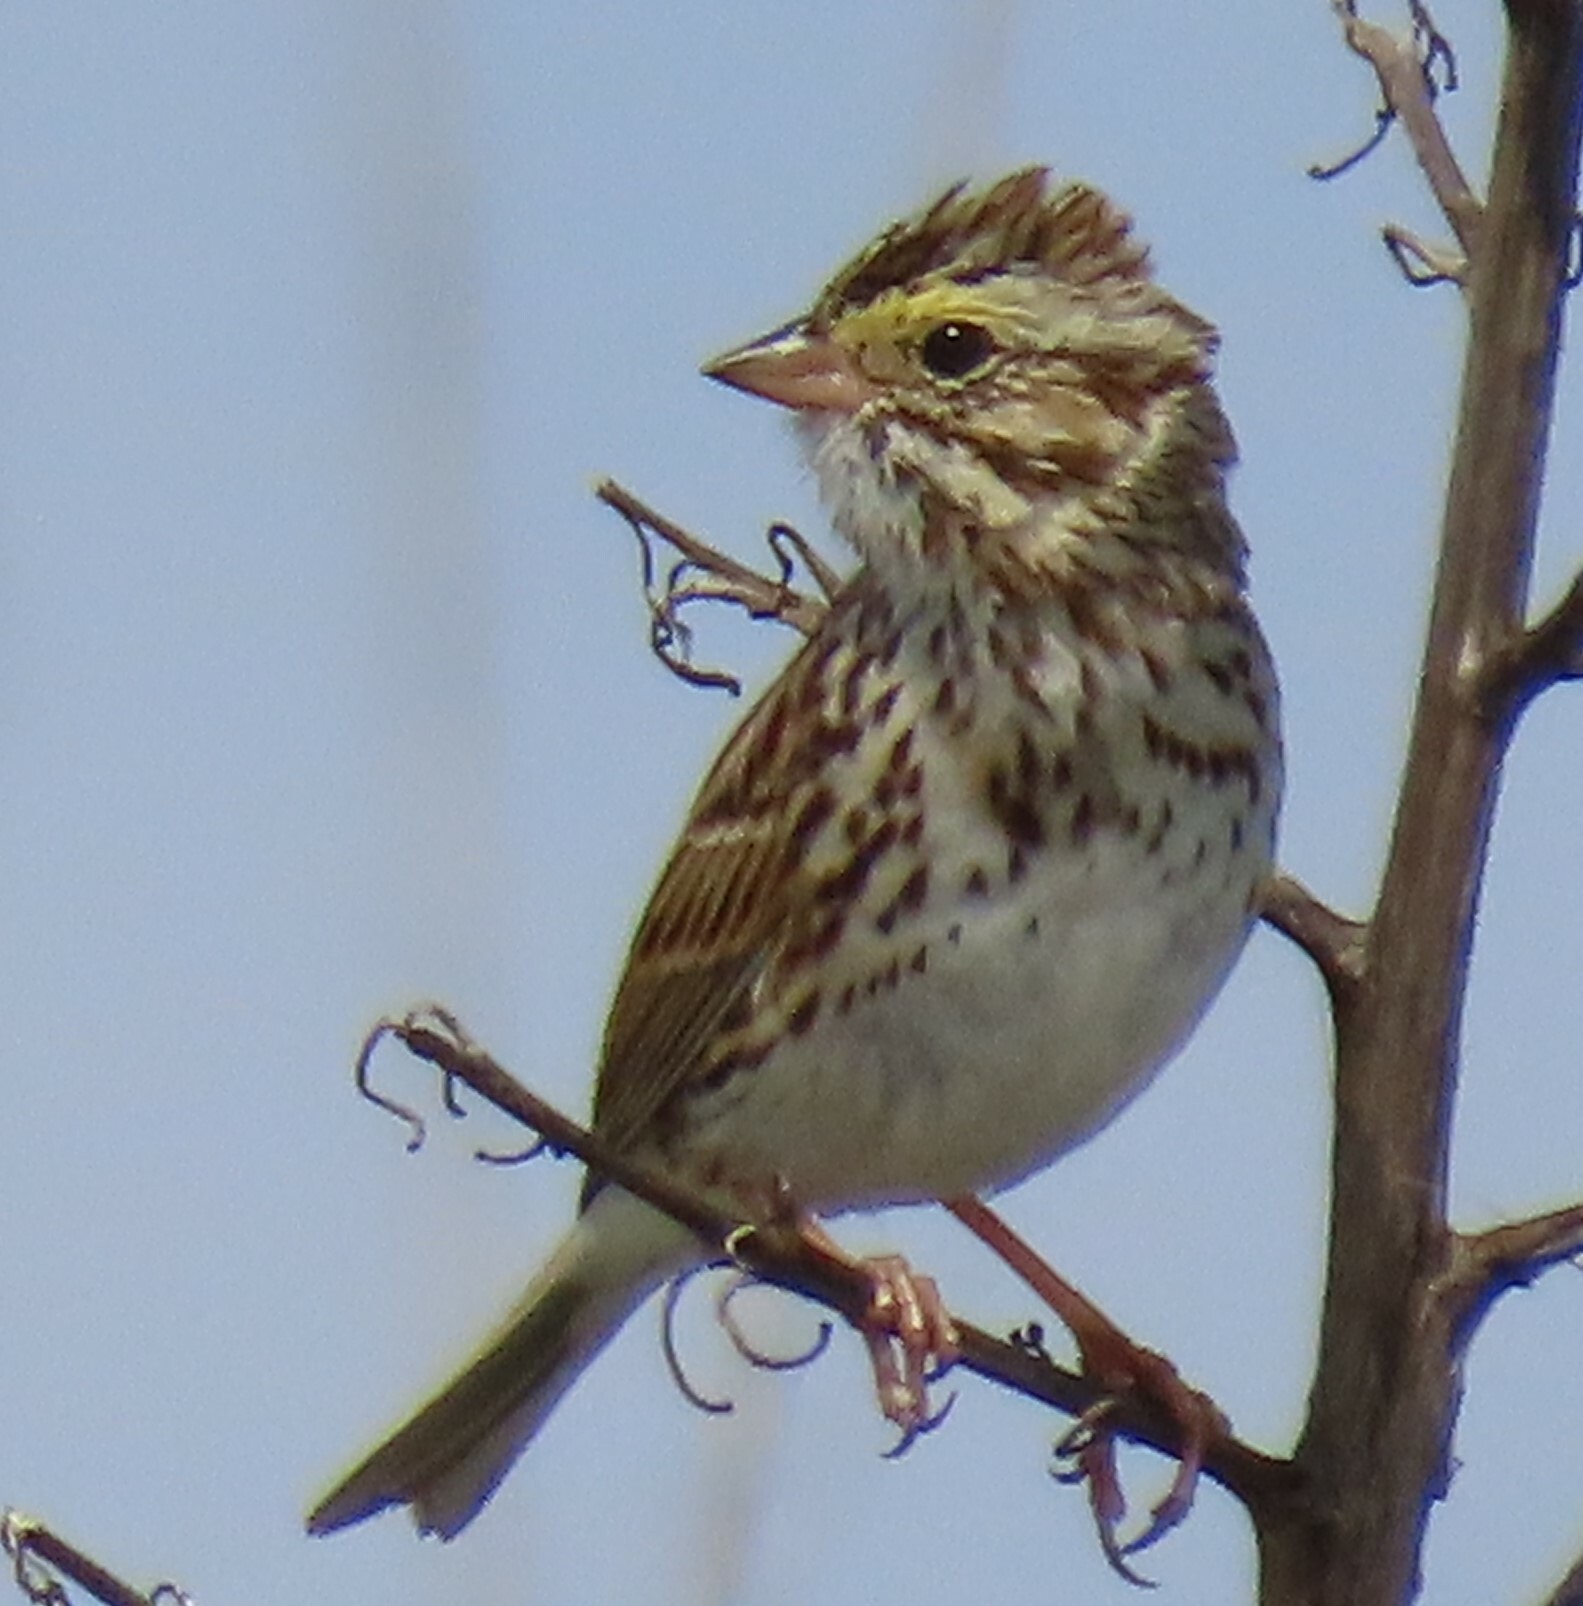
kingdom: Animalia
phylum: Chordata
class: Aves
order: Passeriformes
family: Passerellidae
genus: Passerculus
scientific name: Passerculus sandwichensis
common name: Savannah sparrow
